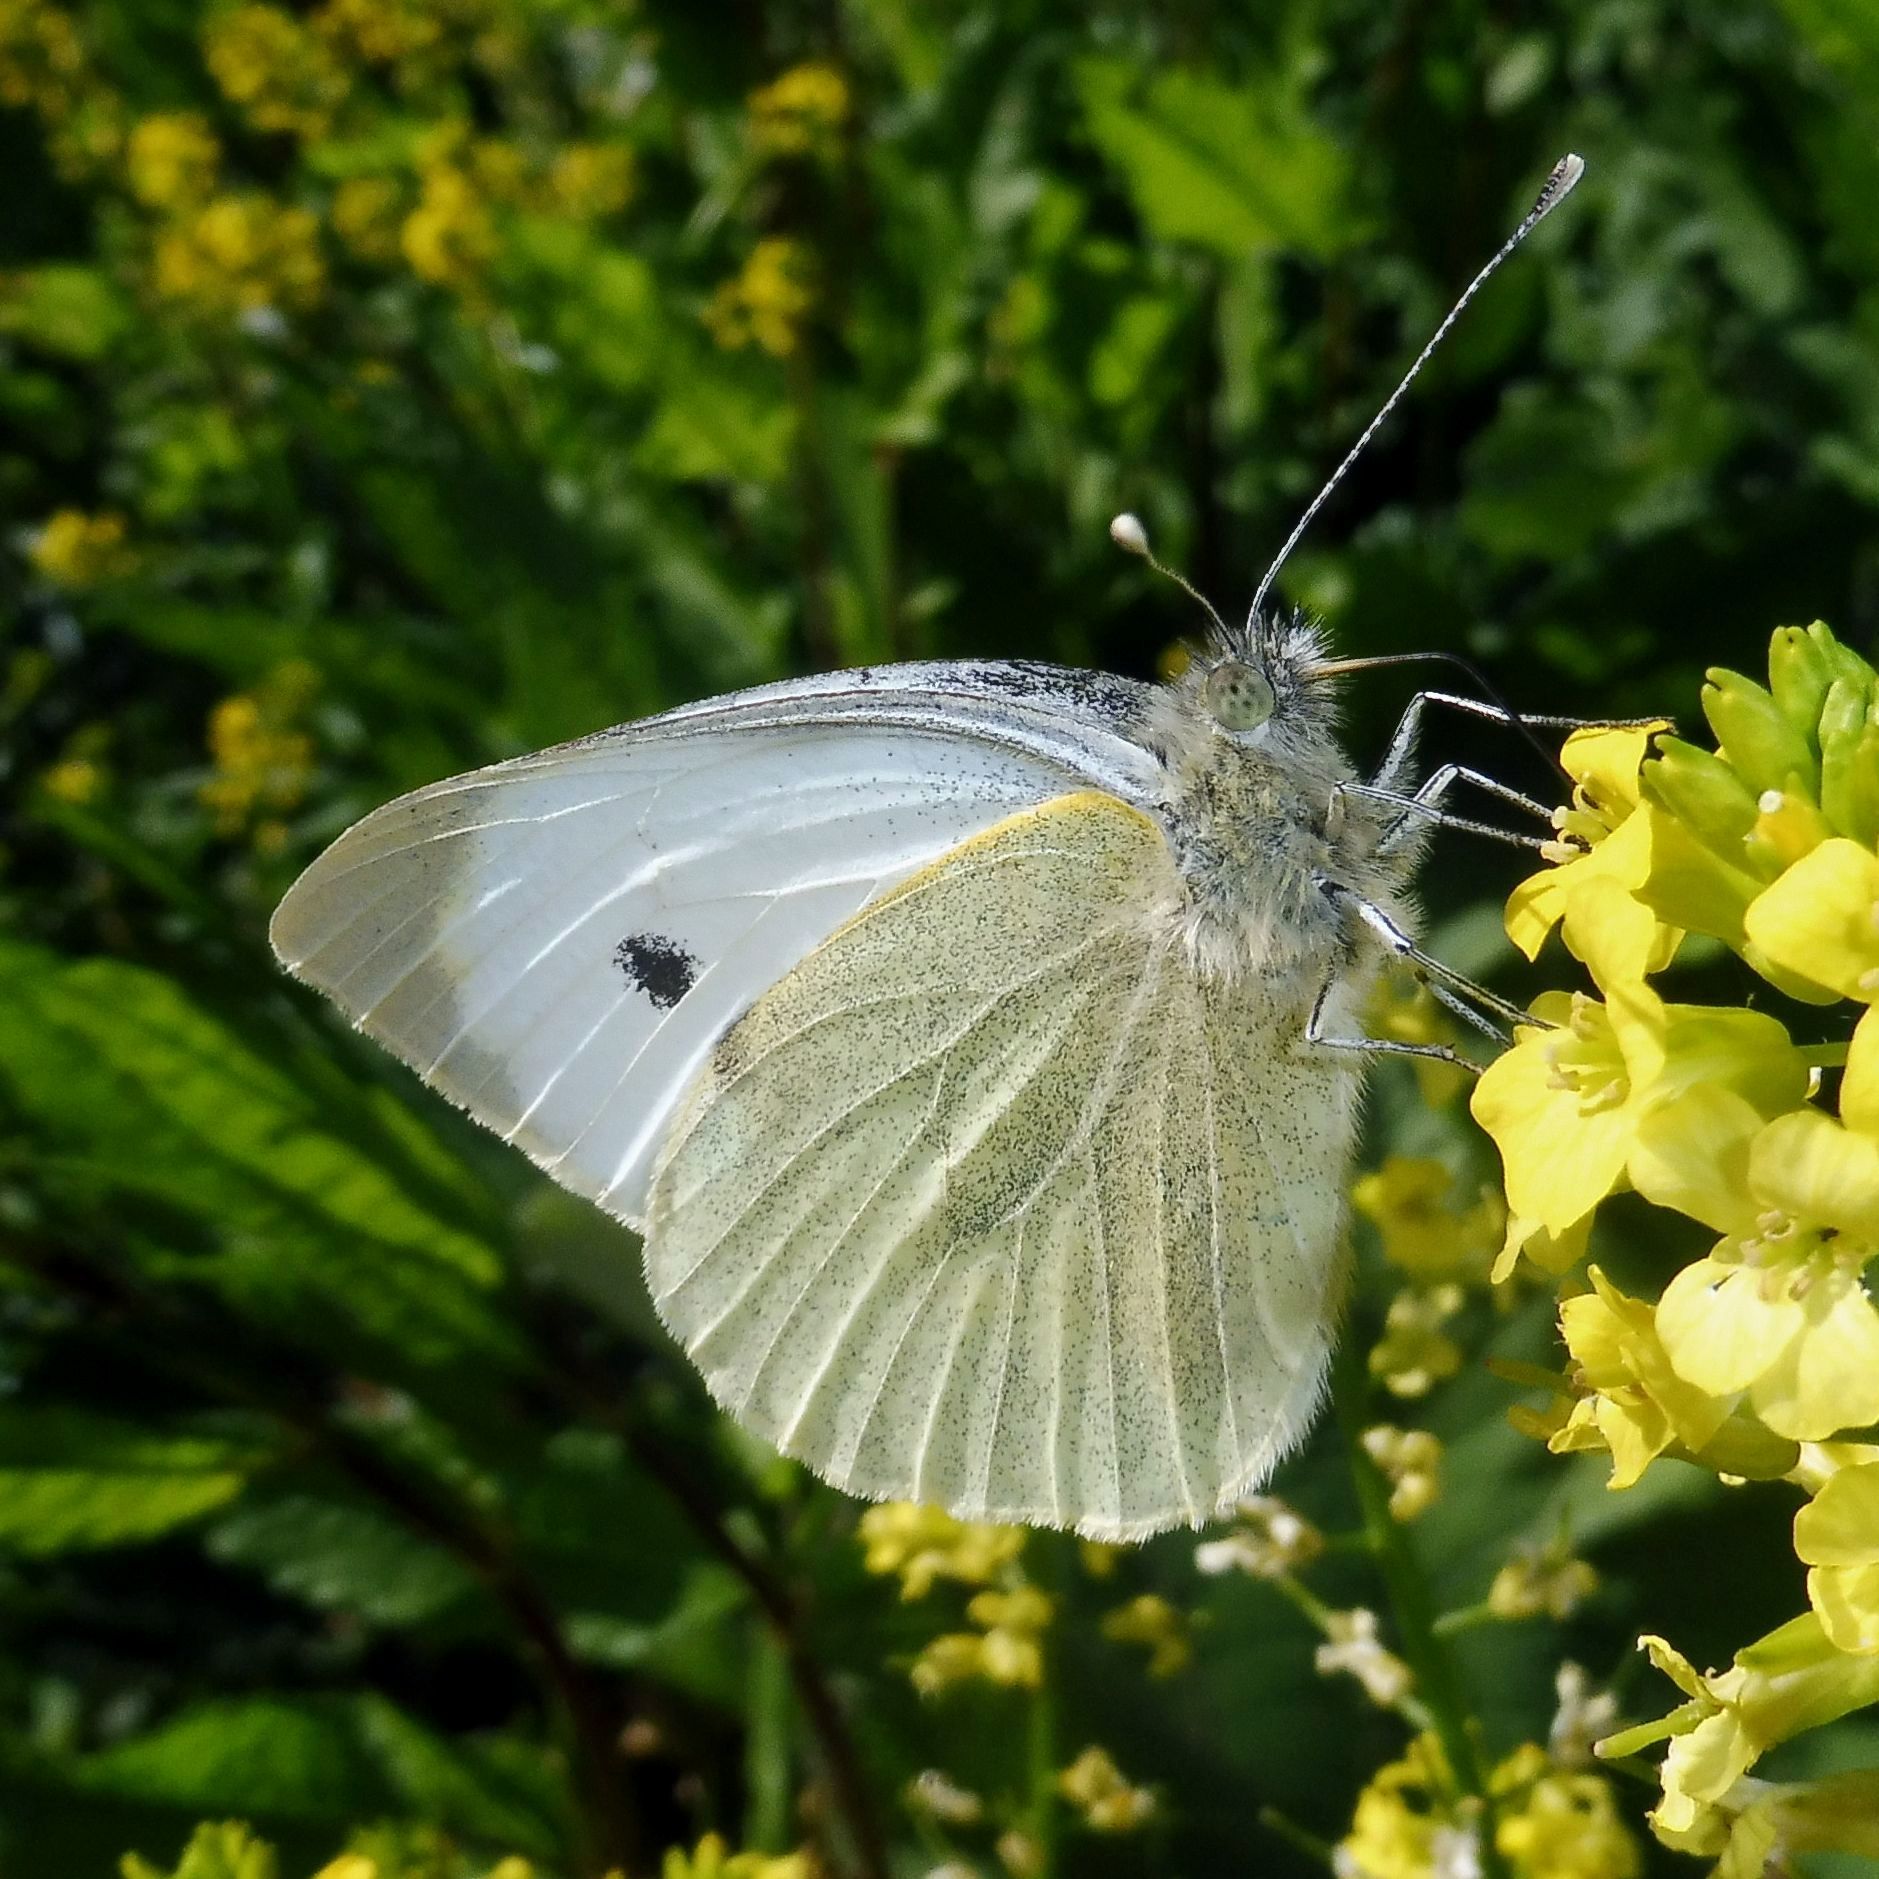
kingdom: Animalia
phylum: Arthropoda
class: Insecta
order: Lepidoptera
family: Pieridae
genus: Pieris
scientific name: Pieris brassicae
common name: Large white
